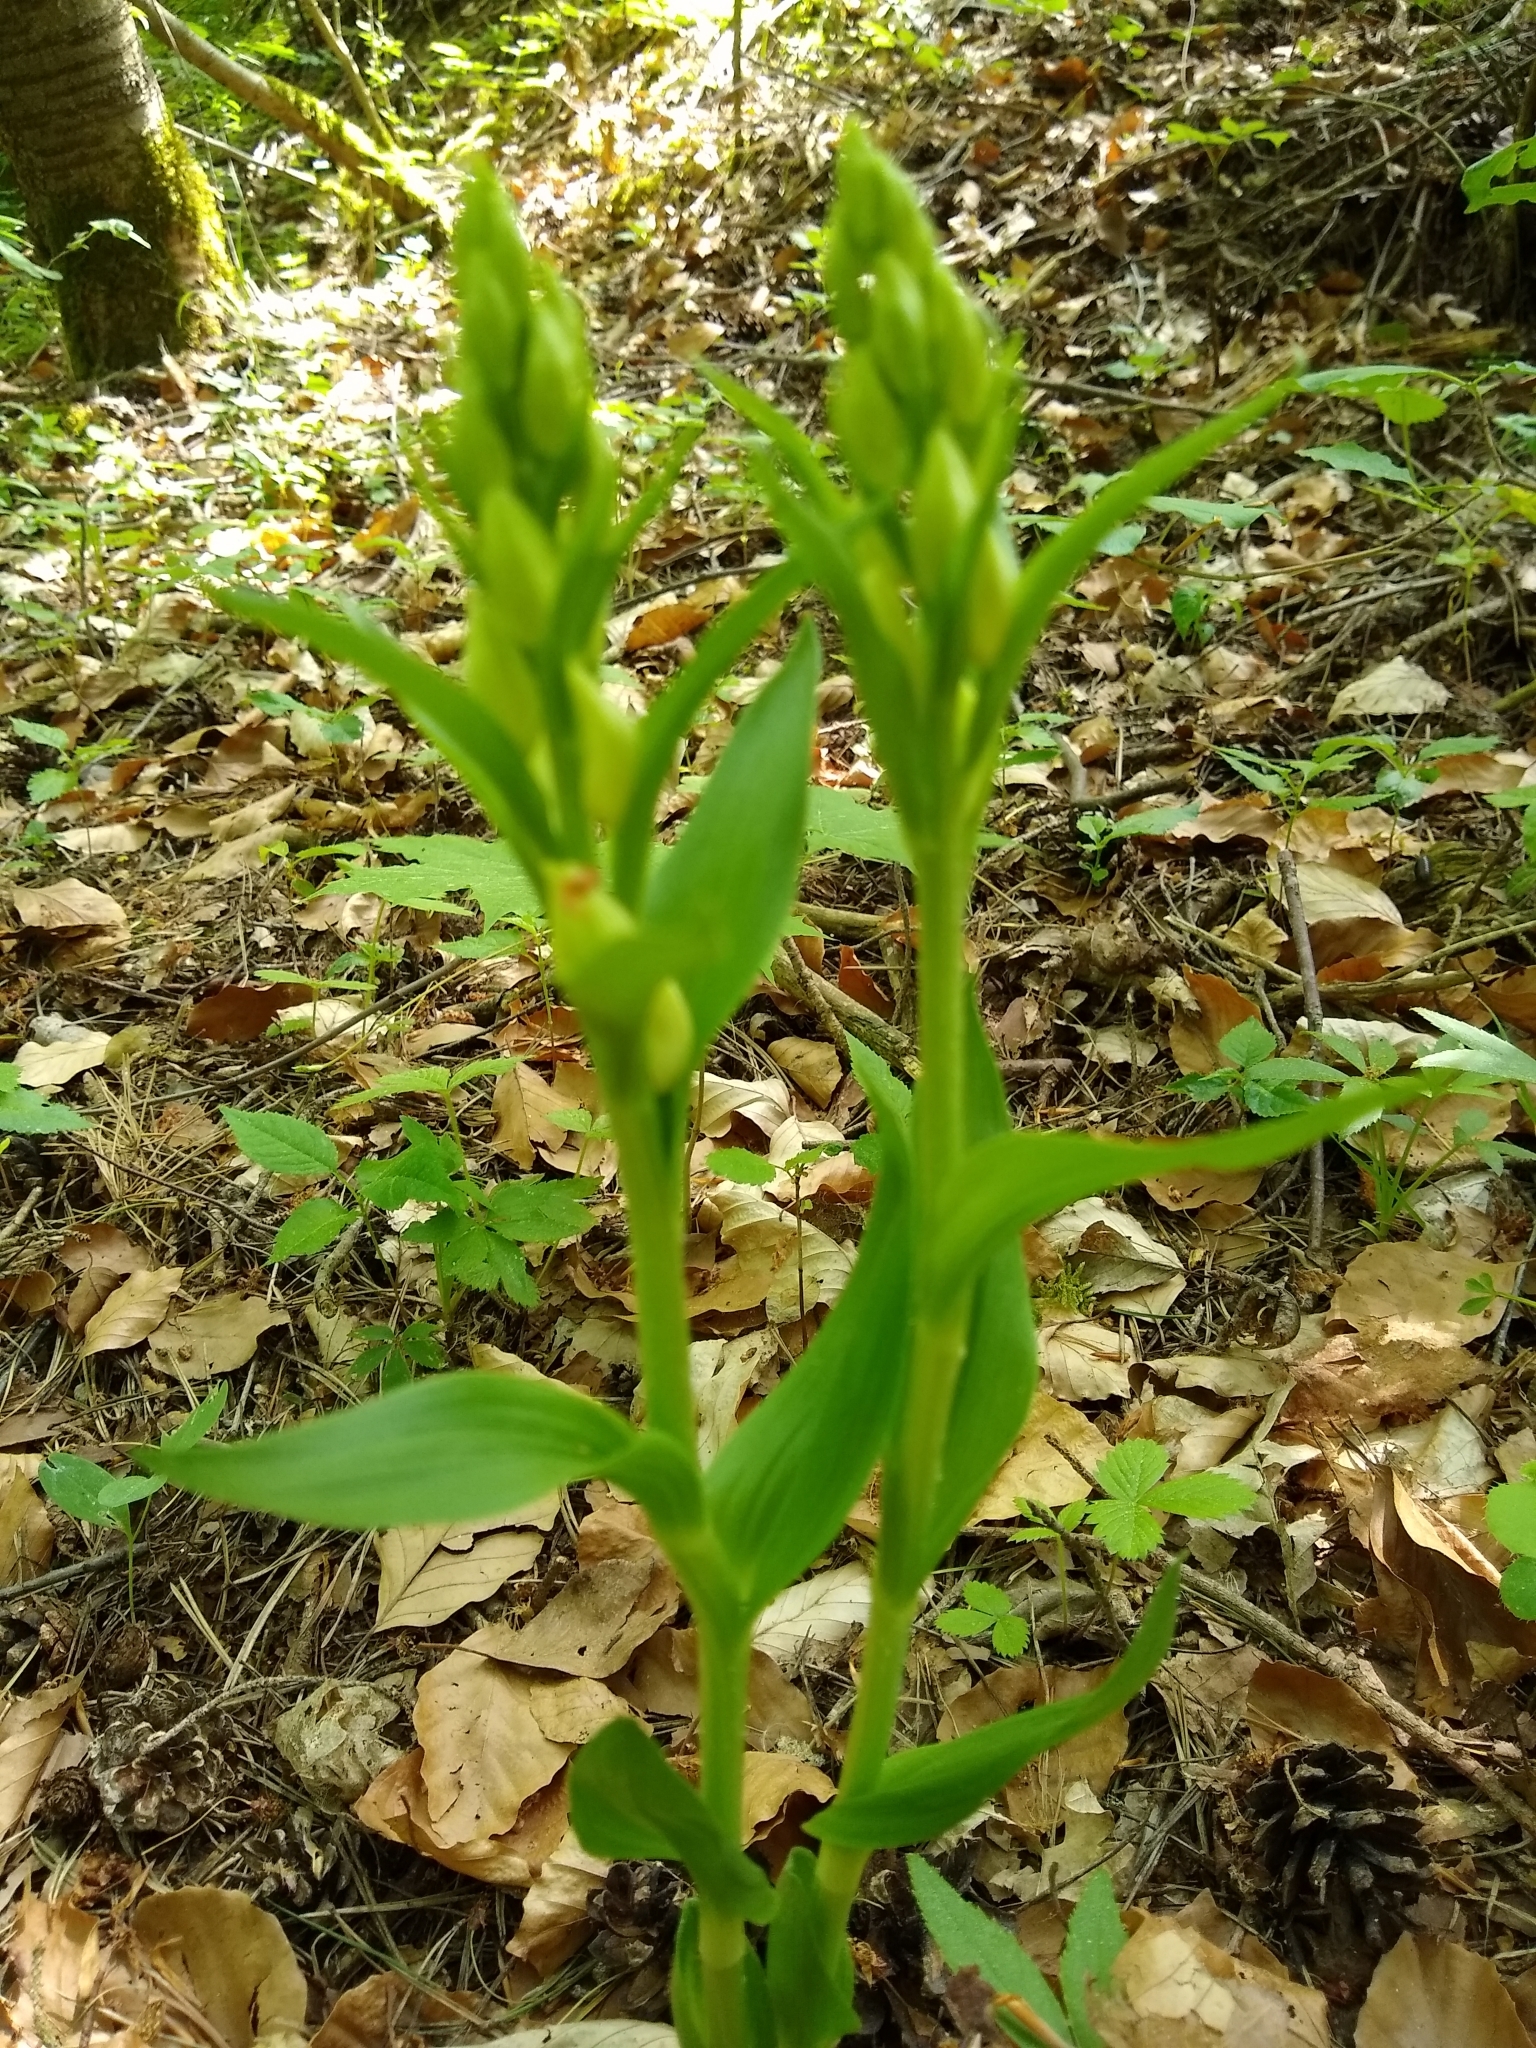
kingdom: Plantae
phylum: Tracheophyta
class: Liliopsida
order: Asparagales
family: Orchidaceae
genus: Cephalanthera
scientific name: Cephalanthera damasonium
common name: White helleborine
